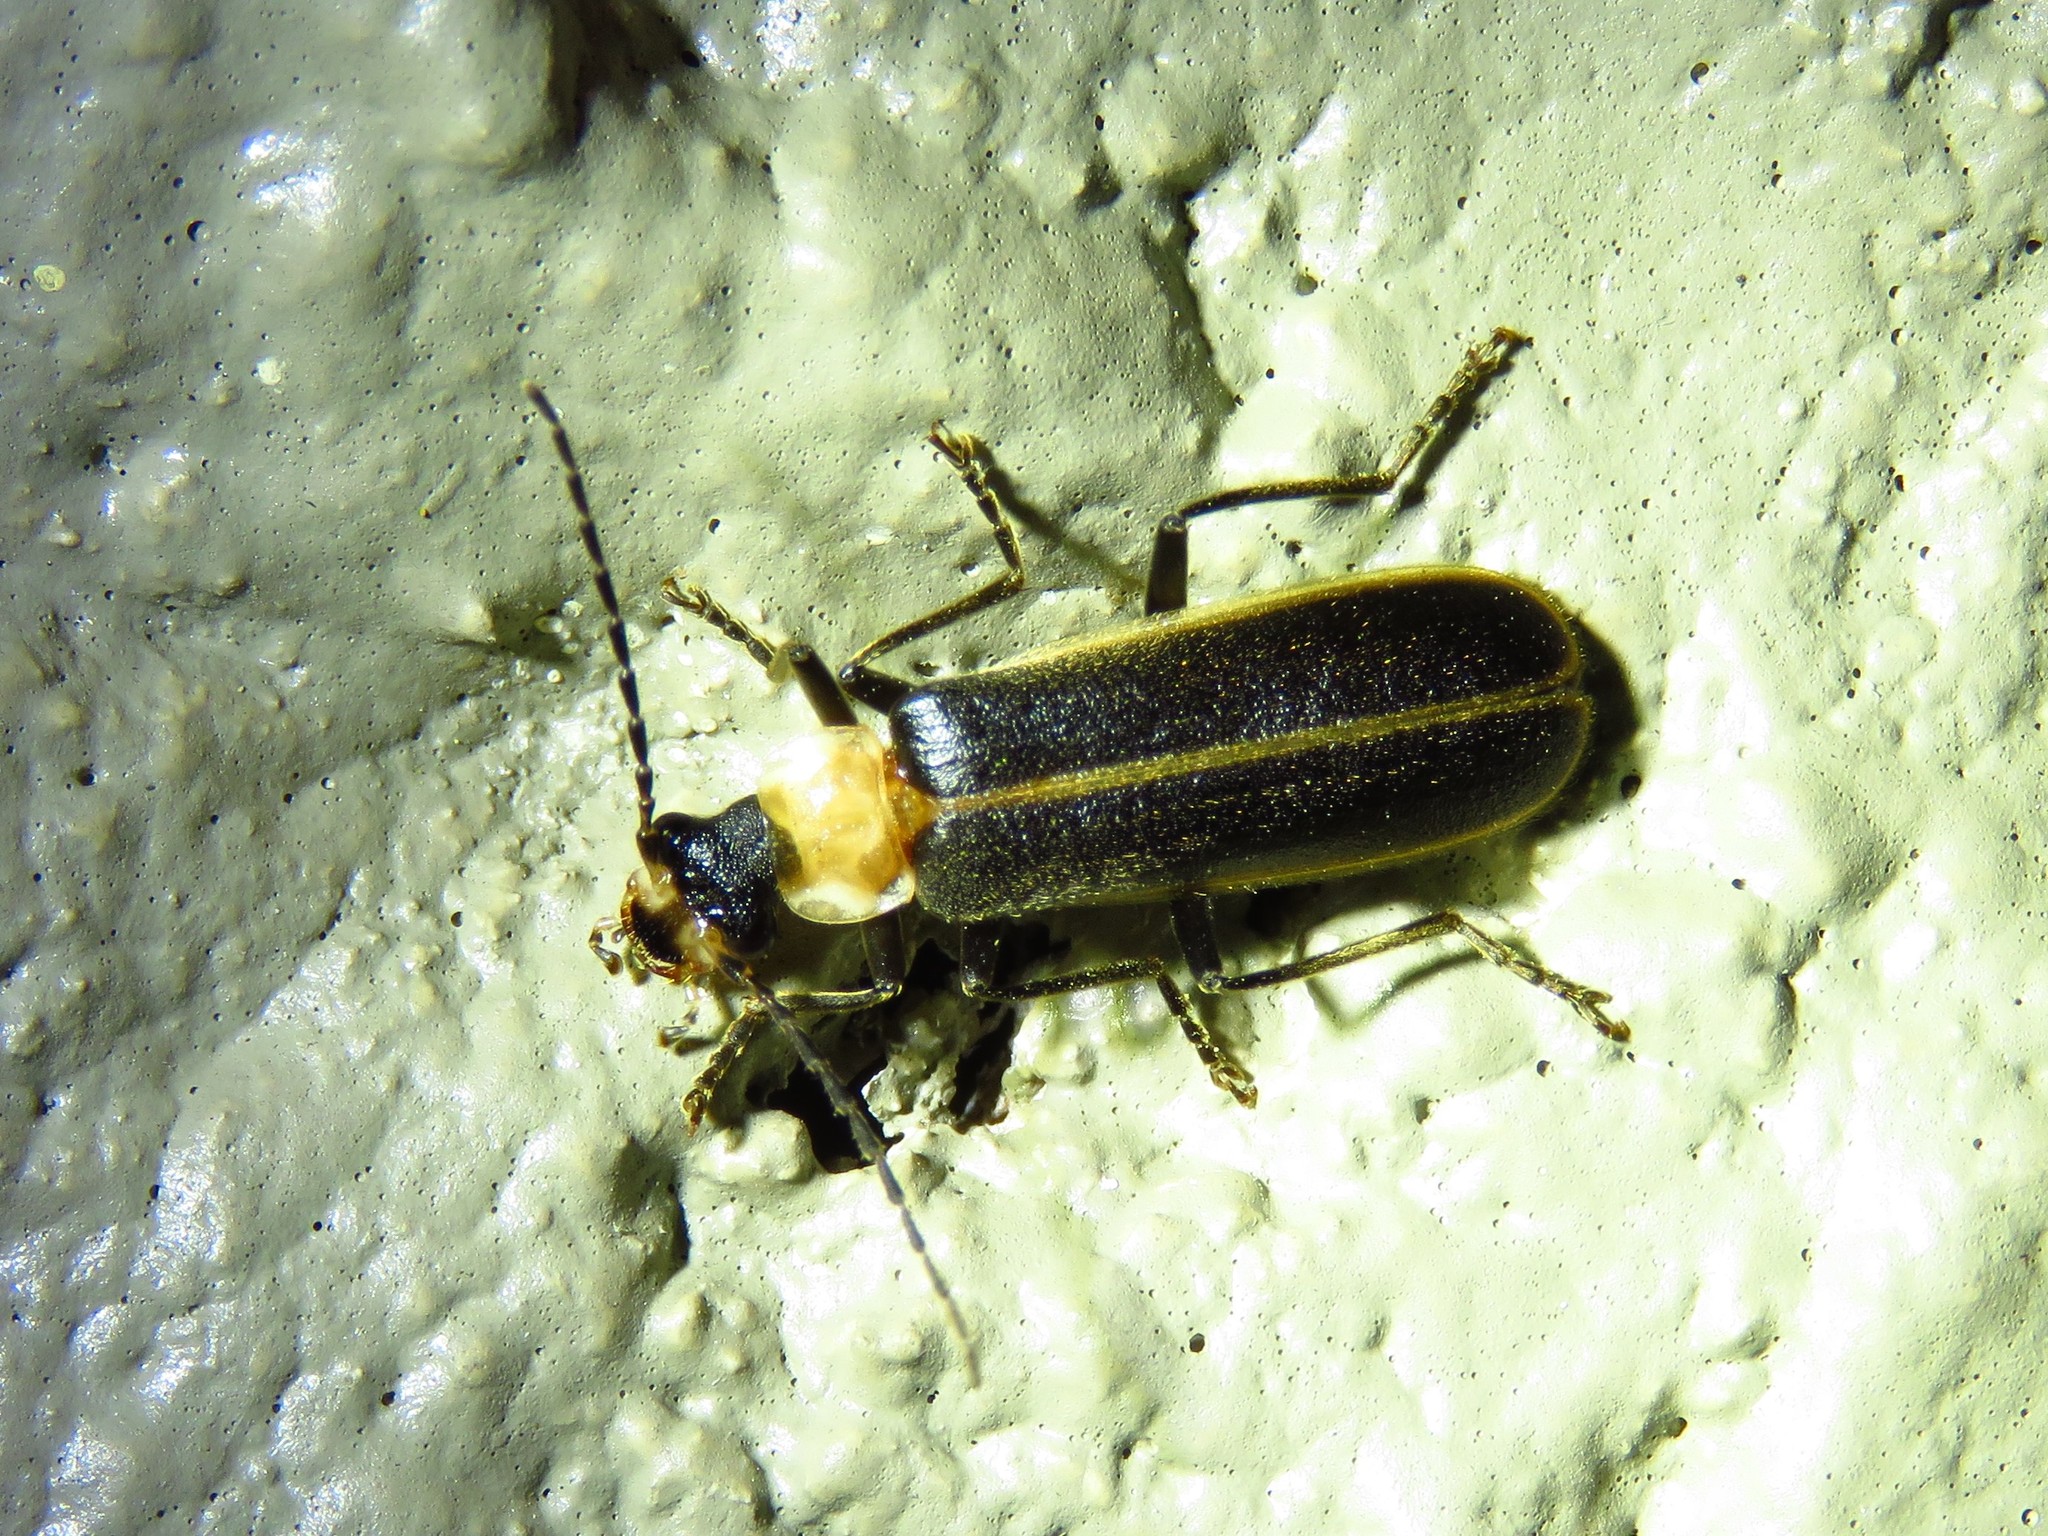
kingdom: Animalia
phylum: Arthropoda
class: Insecta
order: Coleoptera
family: Cantharidae
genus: Podabrus
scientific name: Podabrus flavicollis
